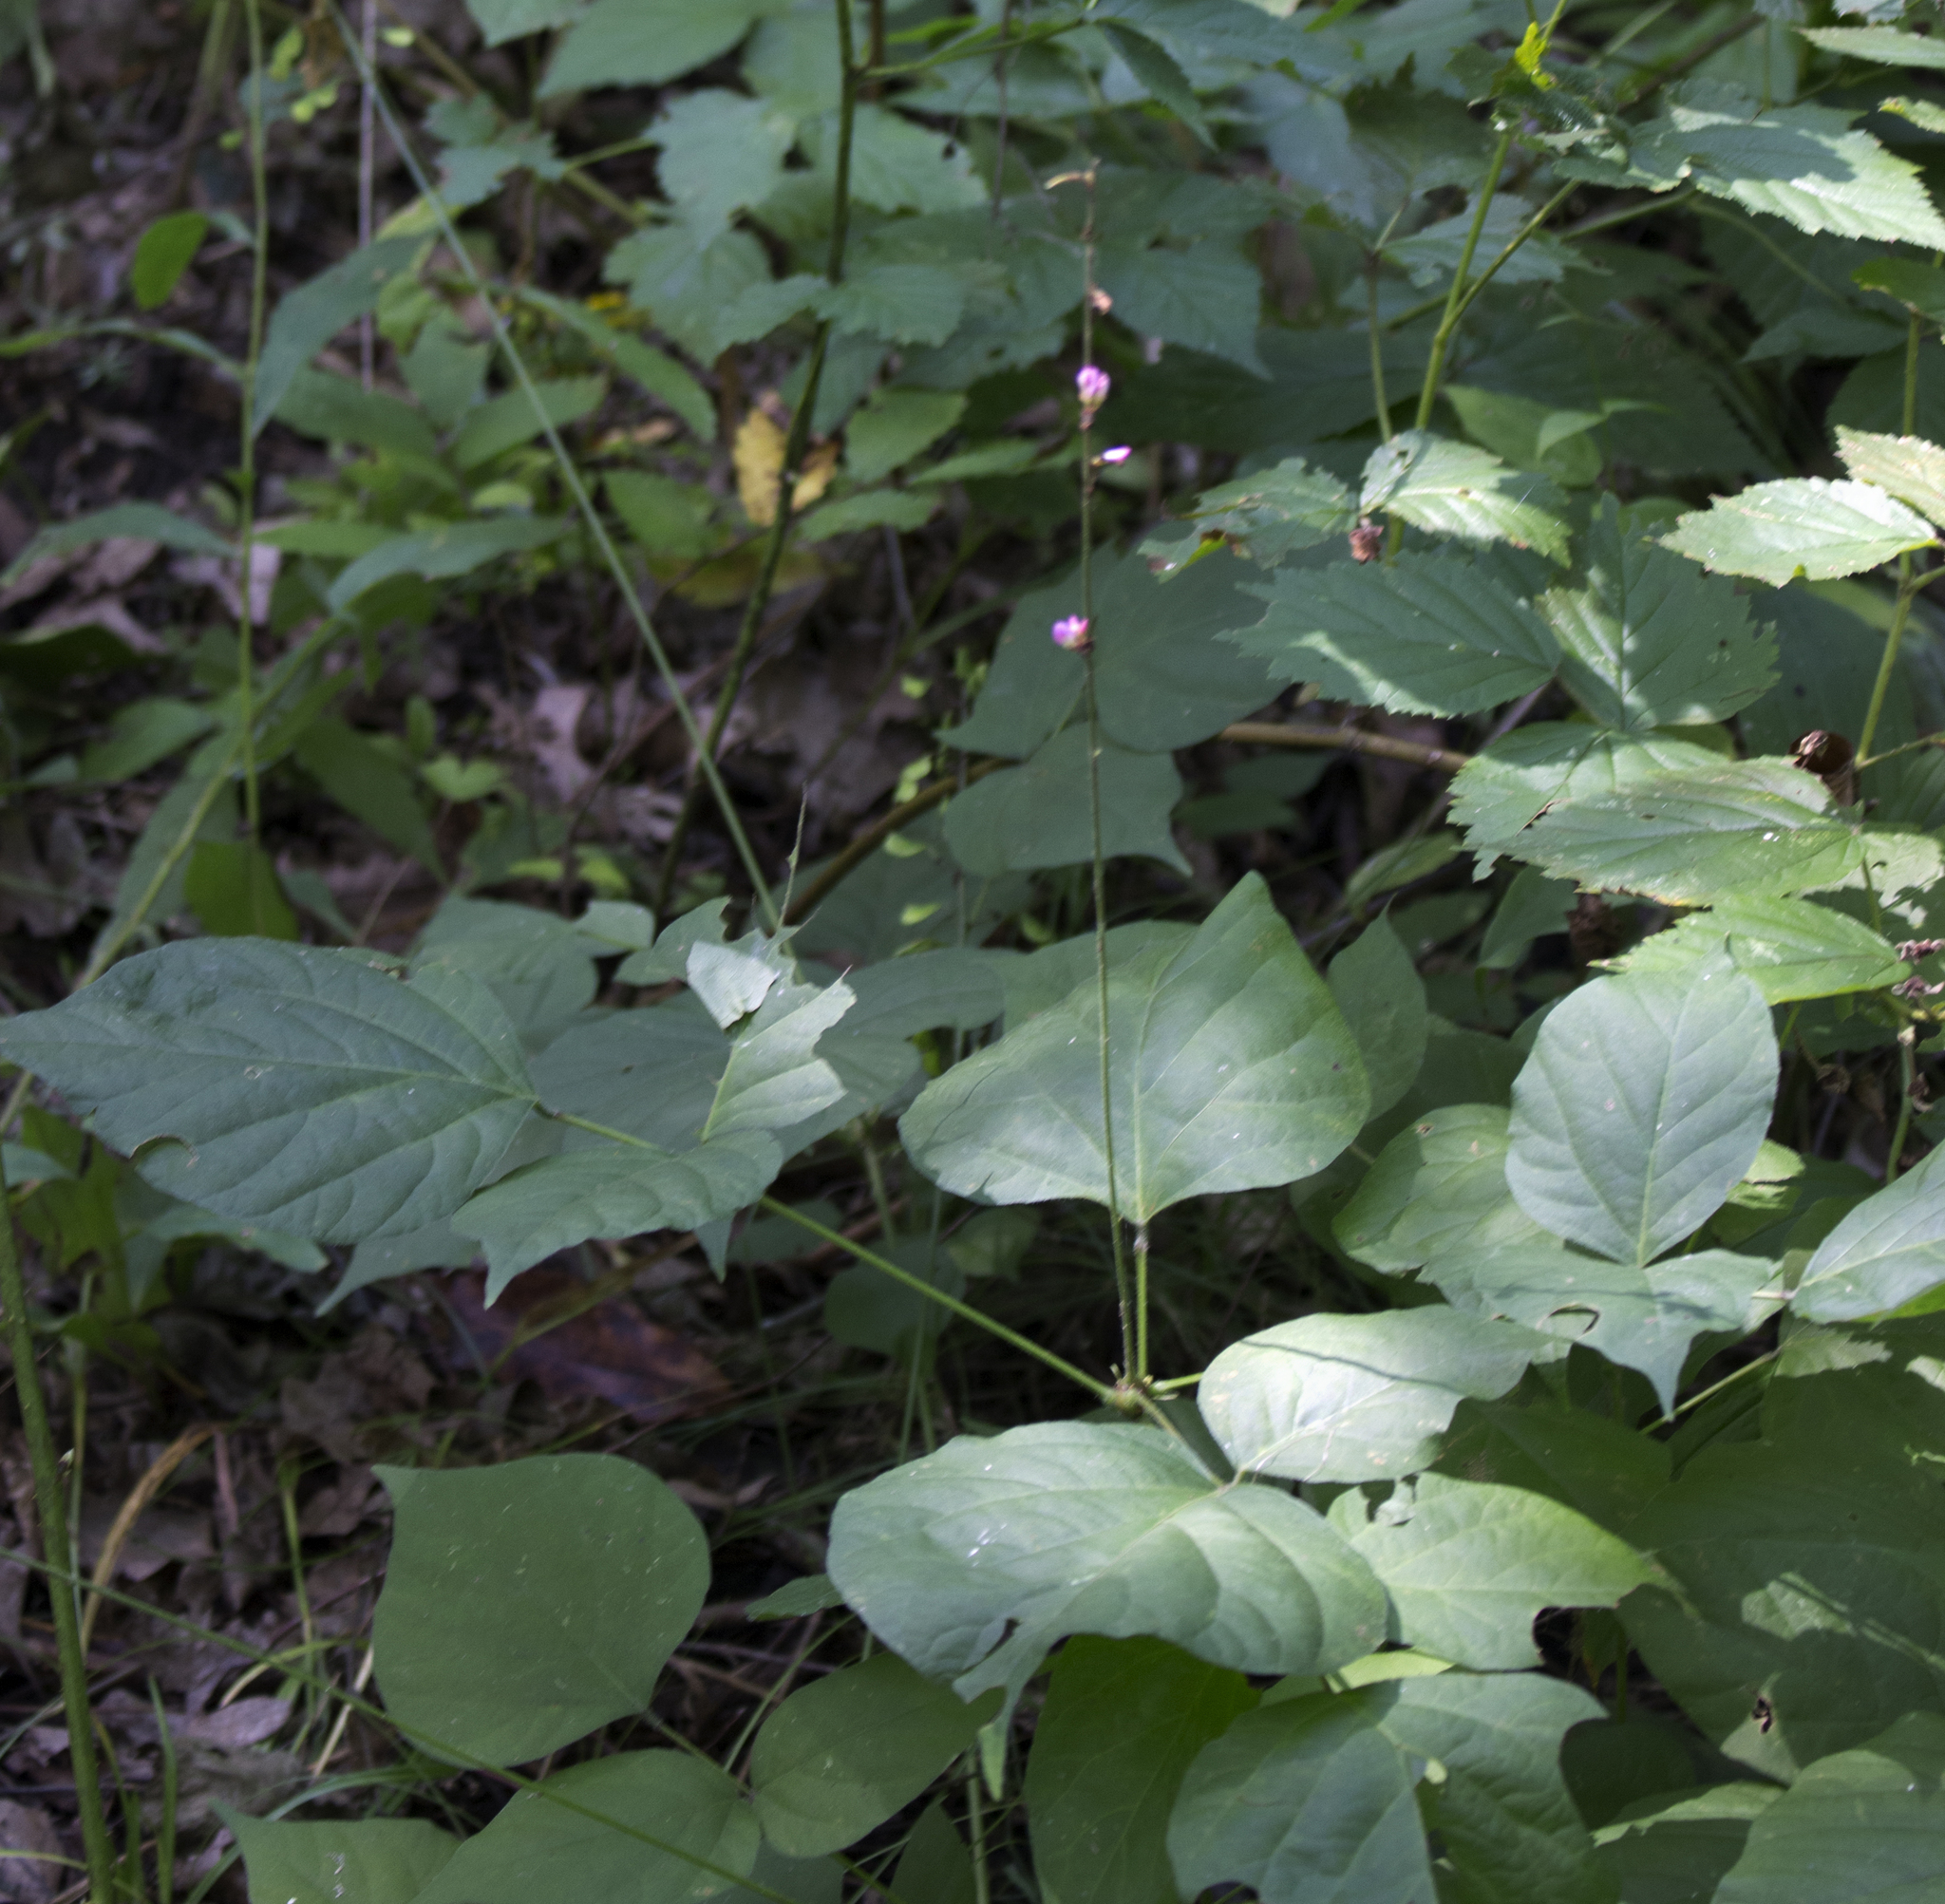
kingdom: Plantae
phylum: Tracheophyta
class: Magnoliopsida
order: Fabales
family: Fabaceae
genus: Hylodesmum
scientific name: Hylodesmum glutinosum
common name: Clustered-leaved tick-trefoil
